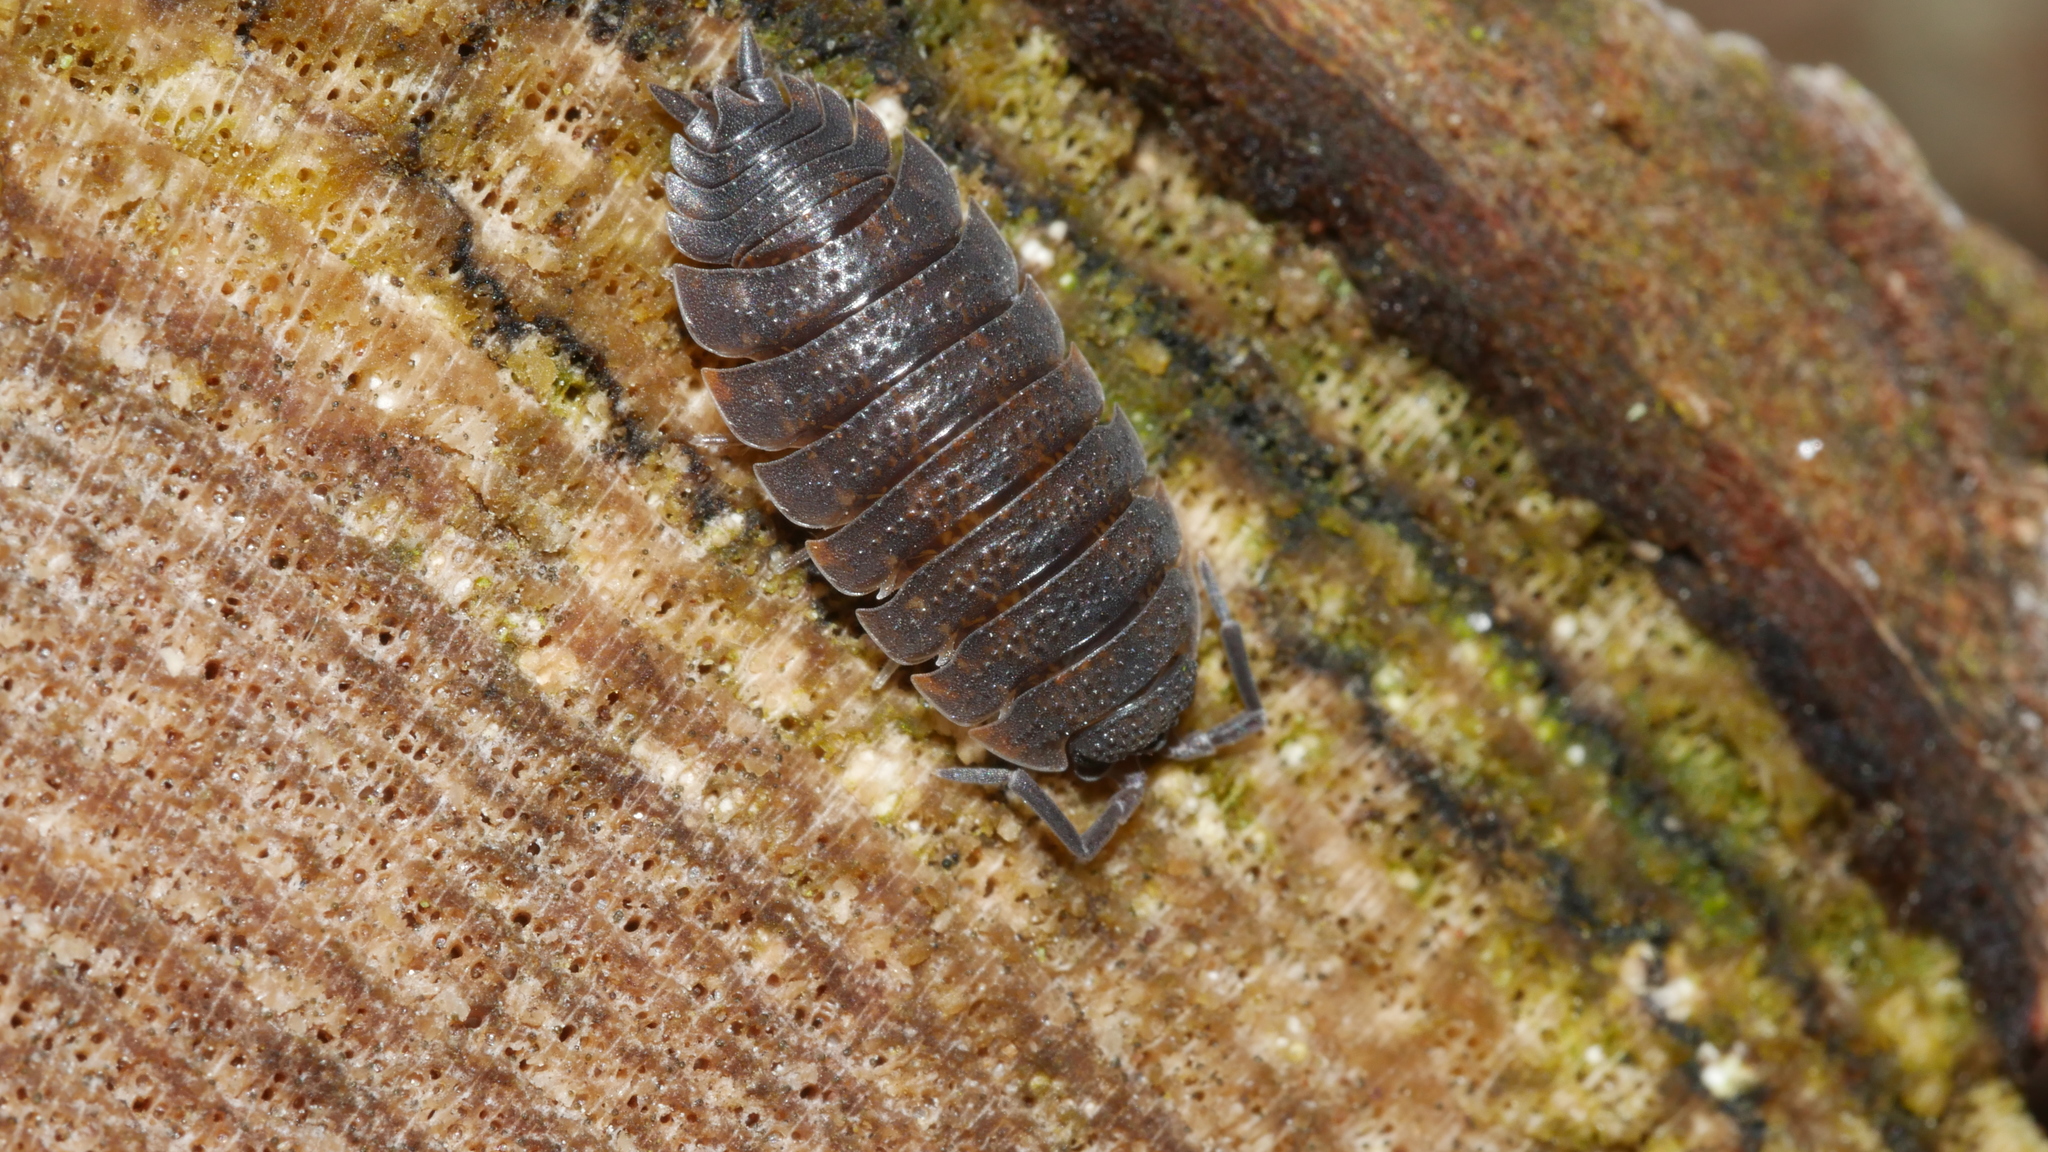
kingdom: Animalia
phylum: Arthropoda
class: Malacostraca
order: Isopoda
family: Porcellionidae
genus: Porcellio
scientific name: Porcellio scaber
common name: Common rough woodlouse
